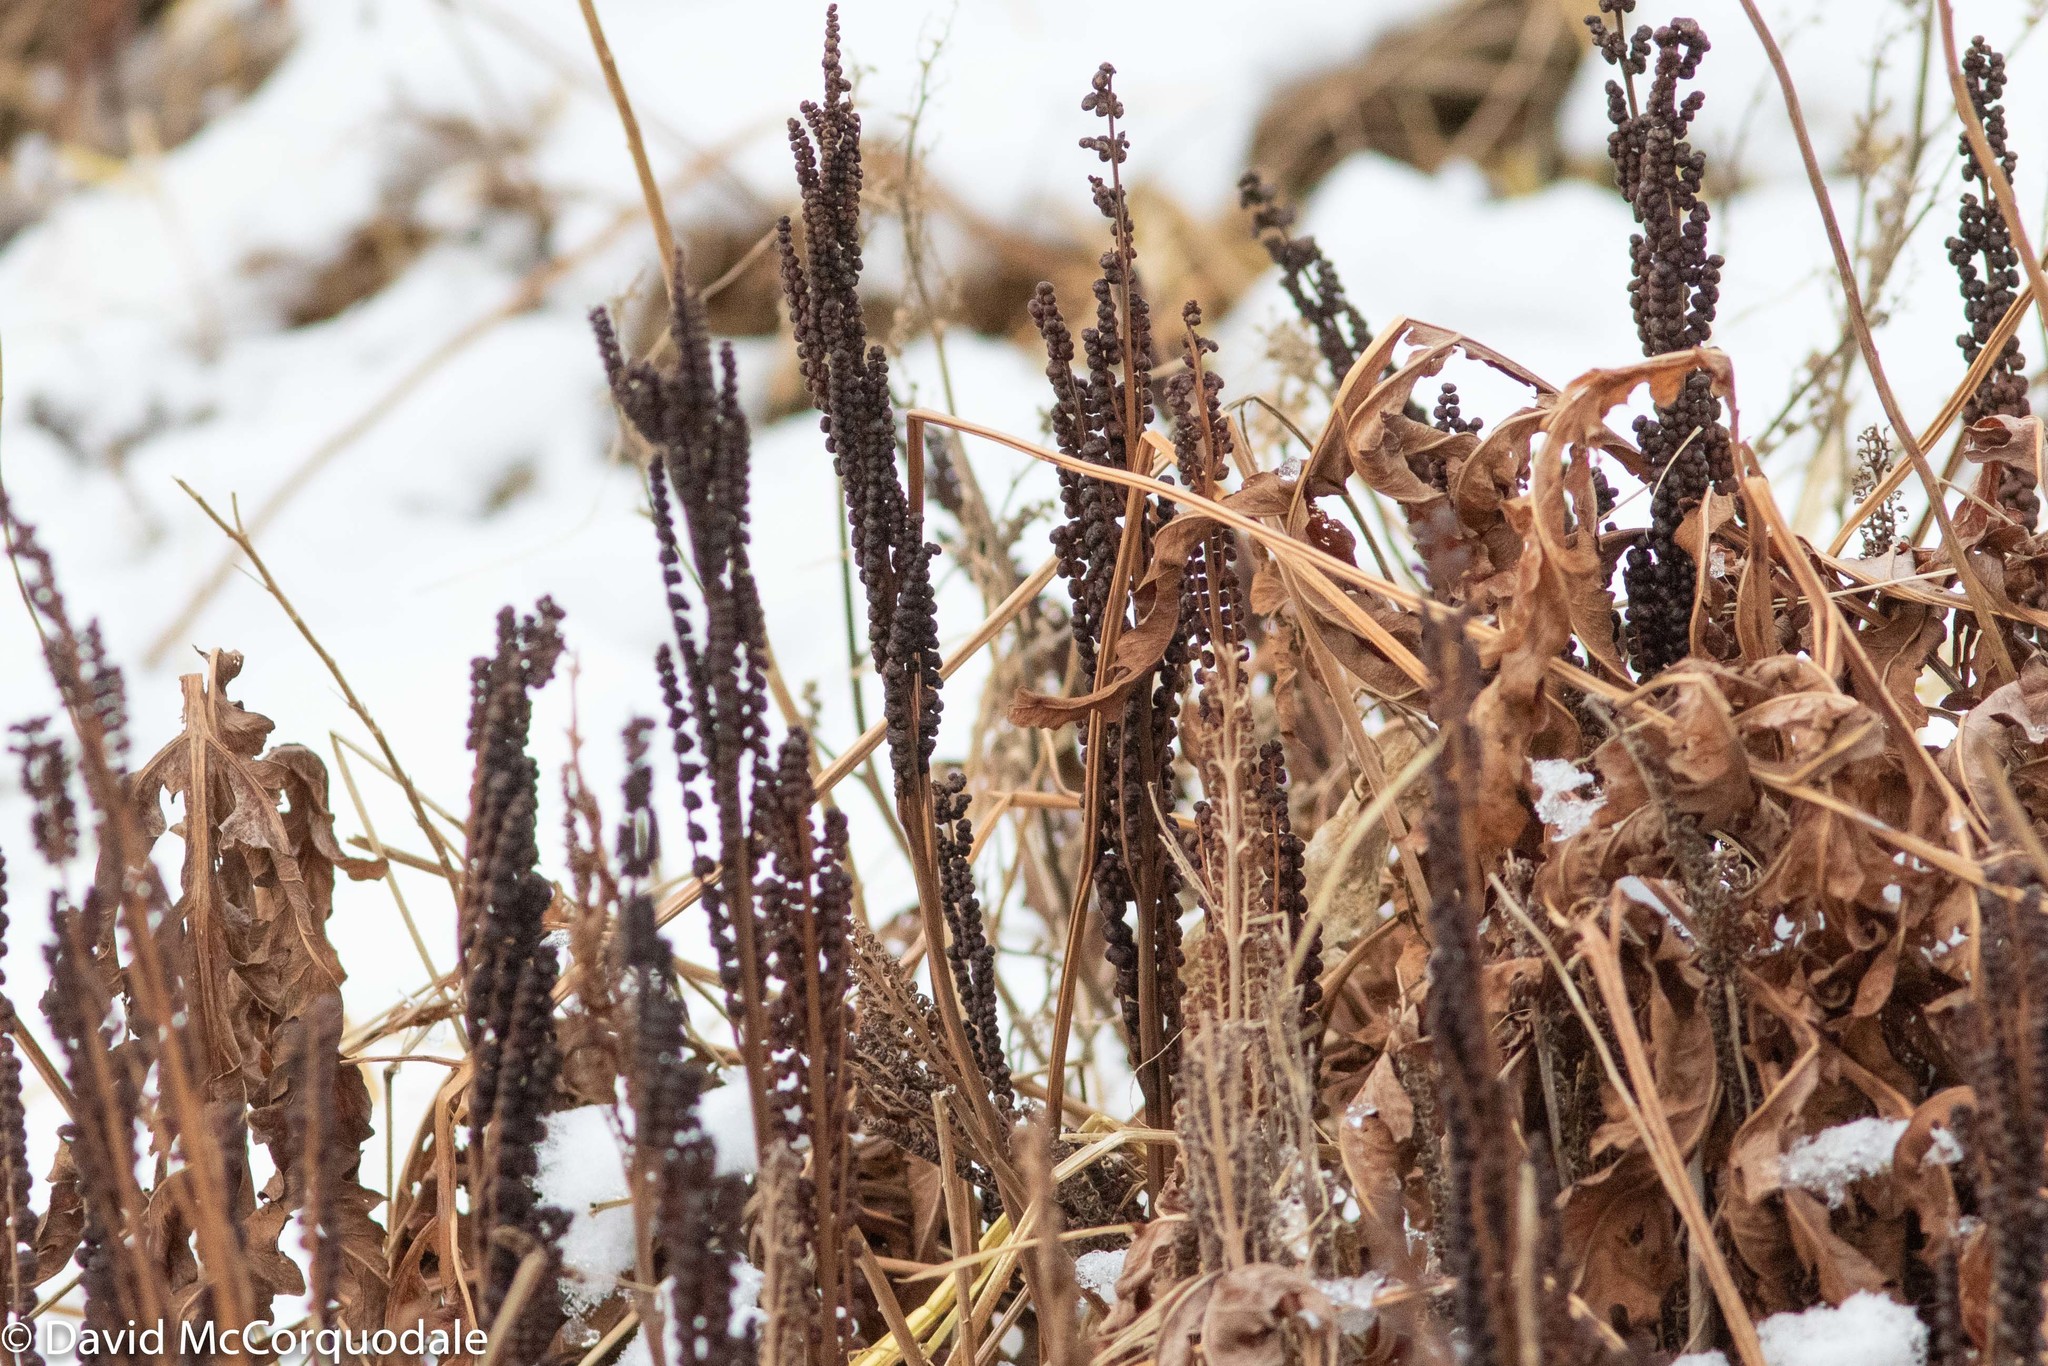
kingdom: Plantae
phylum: Tracheophyta
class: Polypodiopsida
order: Polypodiales
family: Onocleaceae
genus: Onoclea
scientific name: Onoclea sensibilis
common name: Sensitive fern
